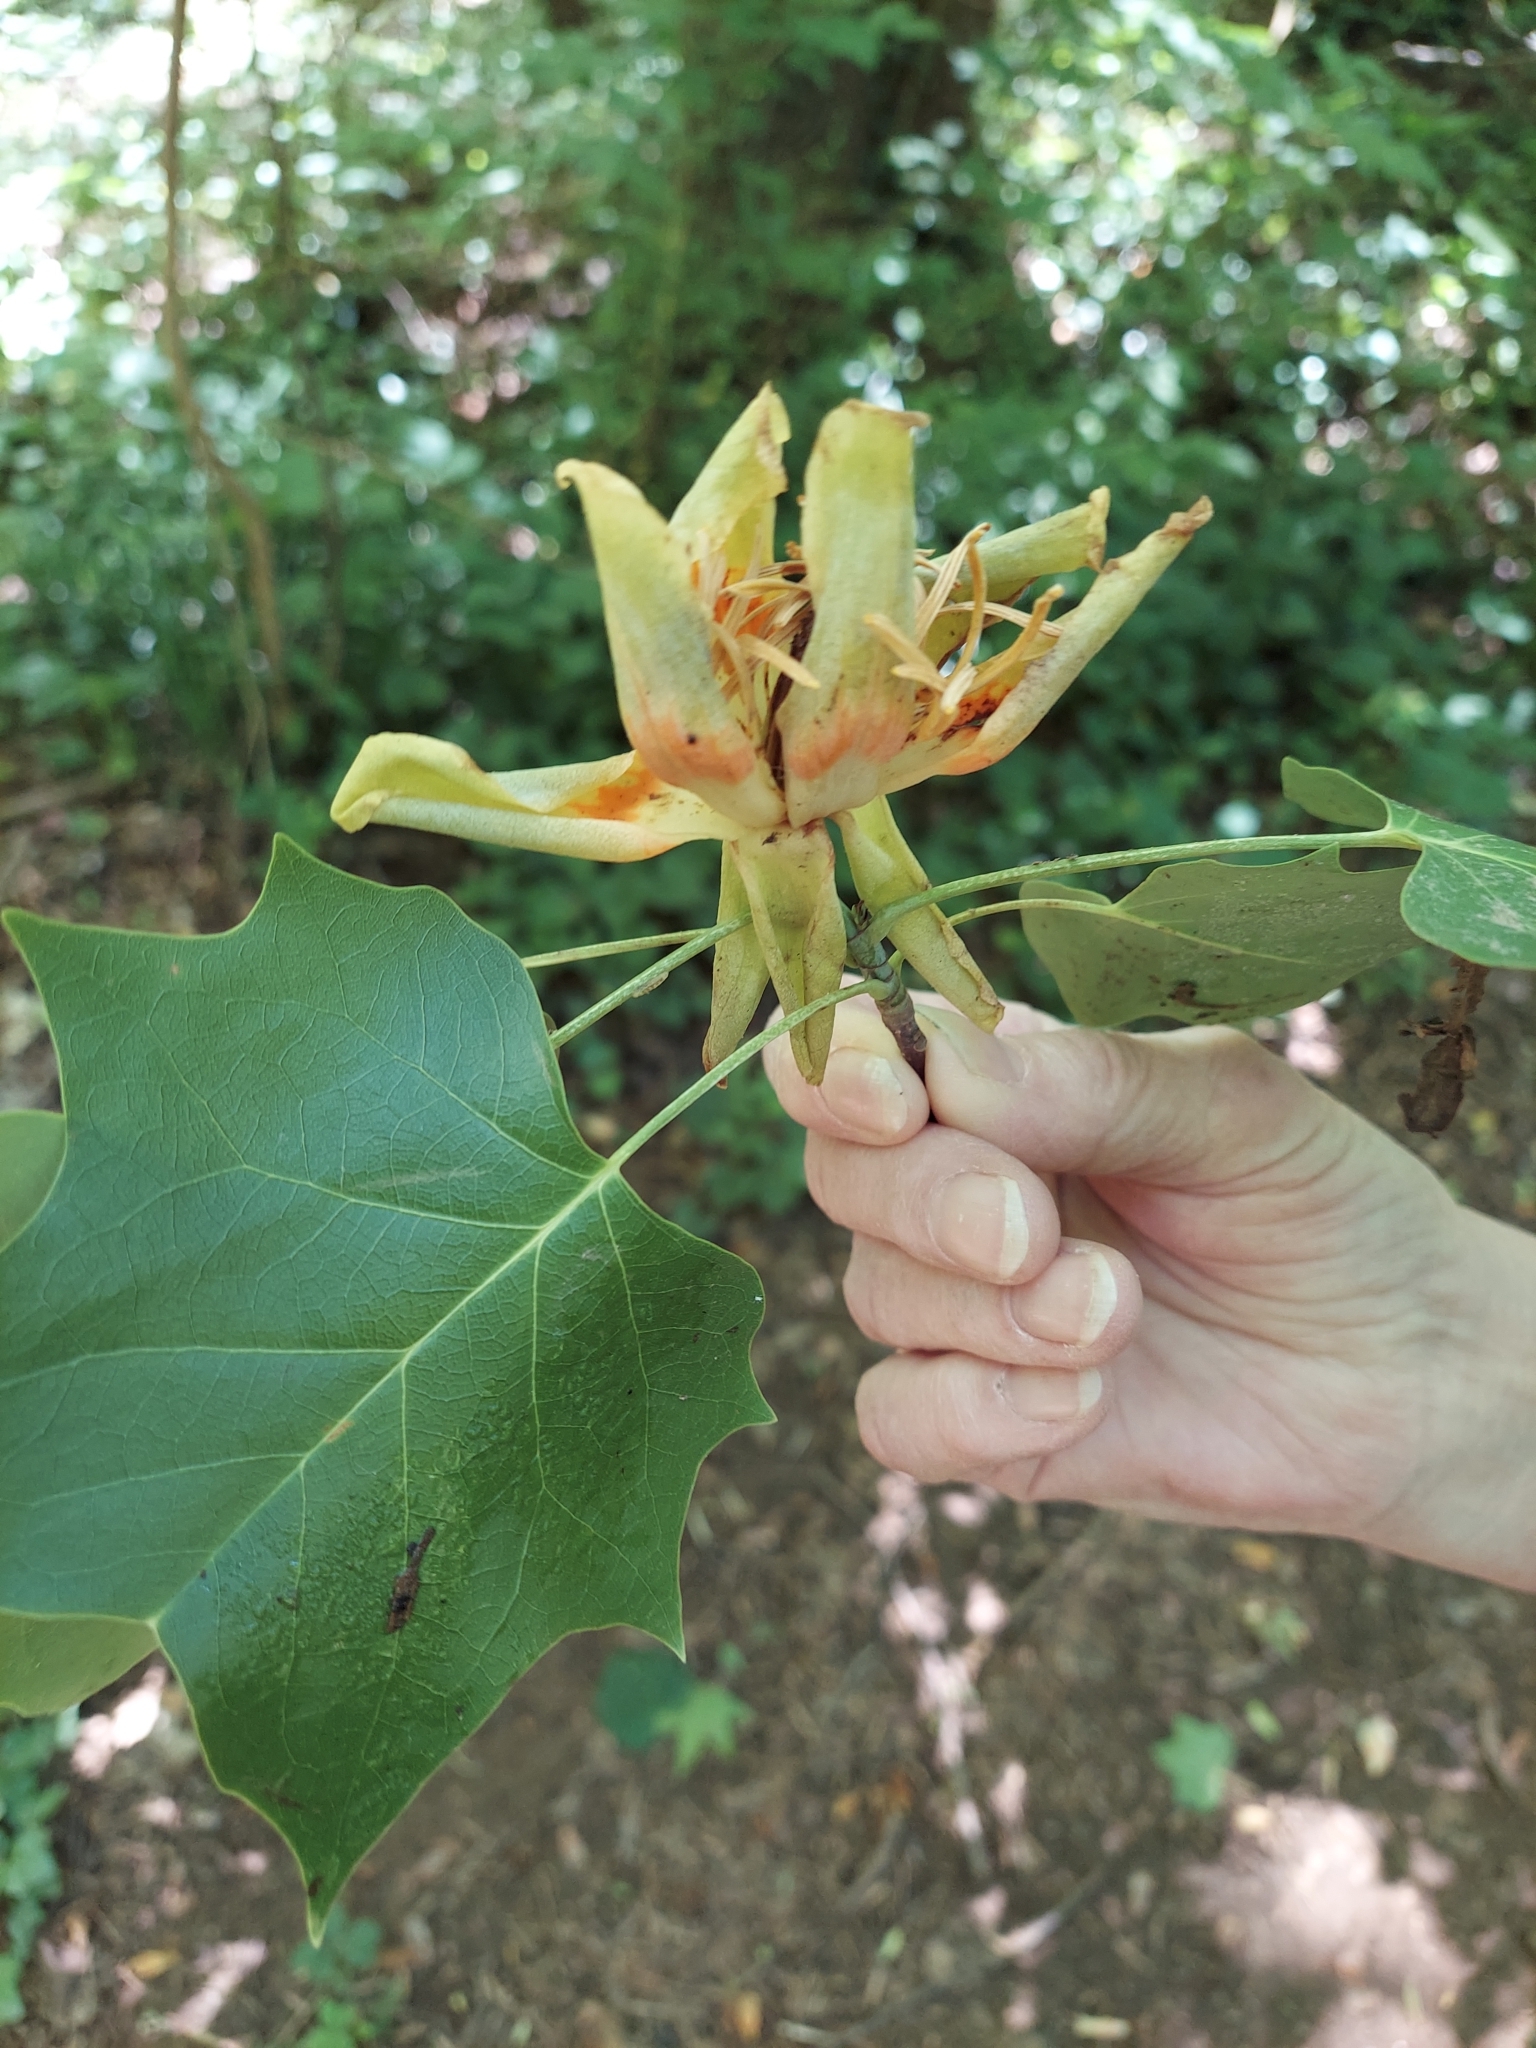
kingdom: Plantae
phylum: Tracheophyta
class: Magnoliopsida
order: Magnoliales
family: Magnoliaceae
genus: Liriodendron
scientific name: Liriodendron tulipifera
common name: Tulip tree
